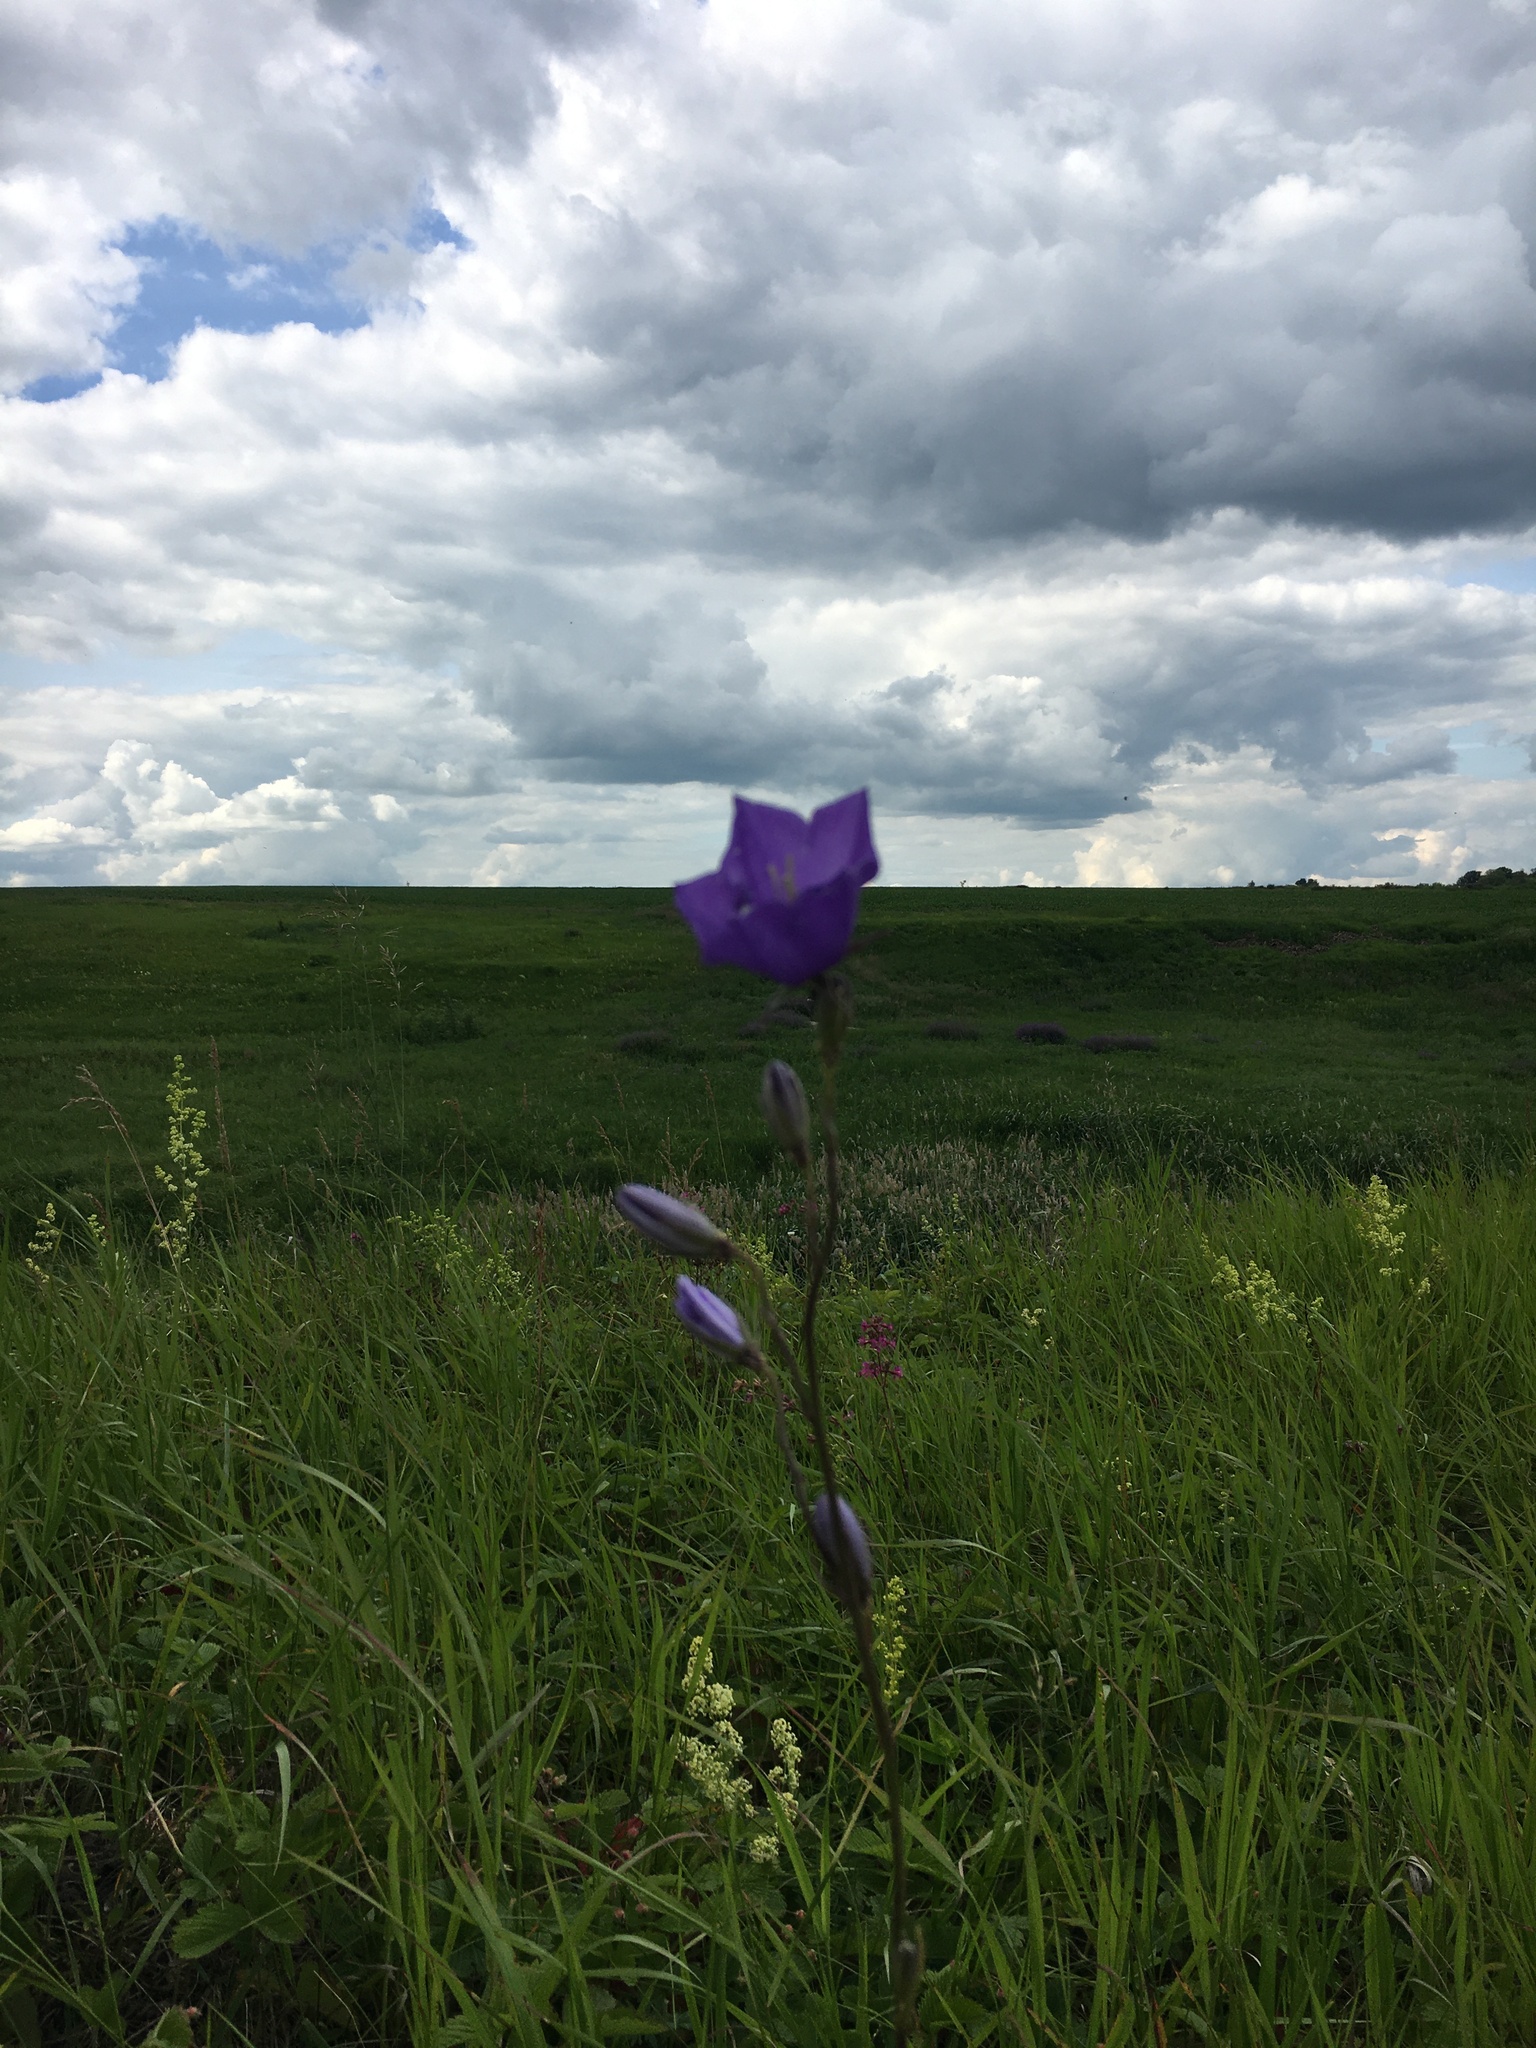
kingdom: Plantae
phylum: Tracheophyta
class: Magnoliopsida
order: Asterales
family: Campanulaceae
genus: Campanula
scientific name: Campanula persicifolia
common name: Peach-leaved bellflower
